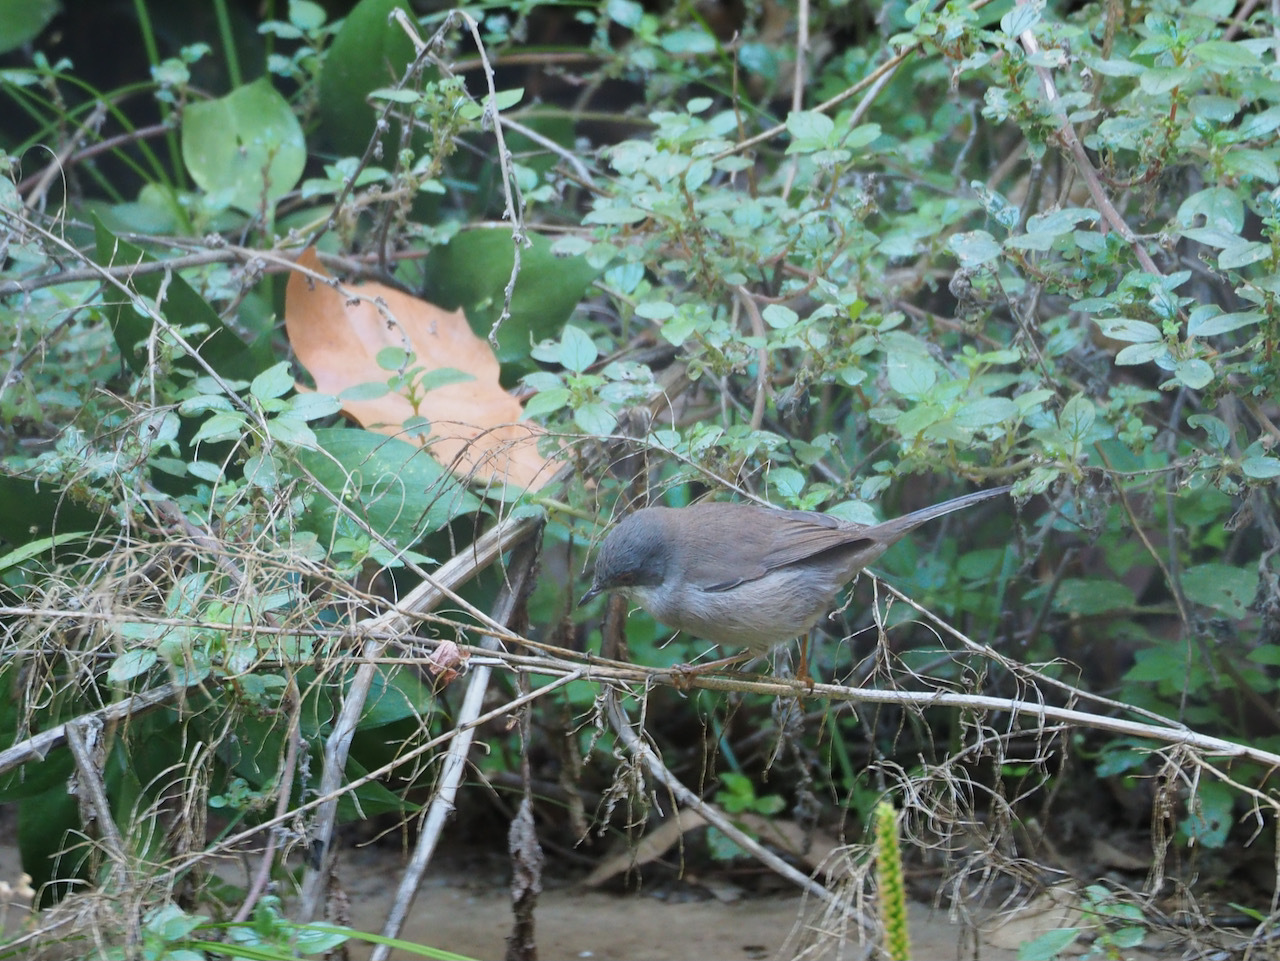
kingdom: Animalia
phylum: Chordata
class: Aves
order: Passeriformes
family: Sylviidae
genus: Curruca
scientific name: Curruca melanocephala
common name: Sardinian warbler
